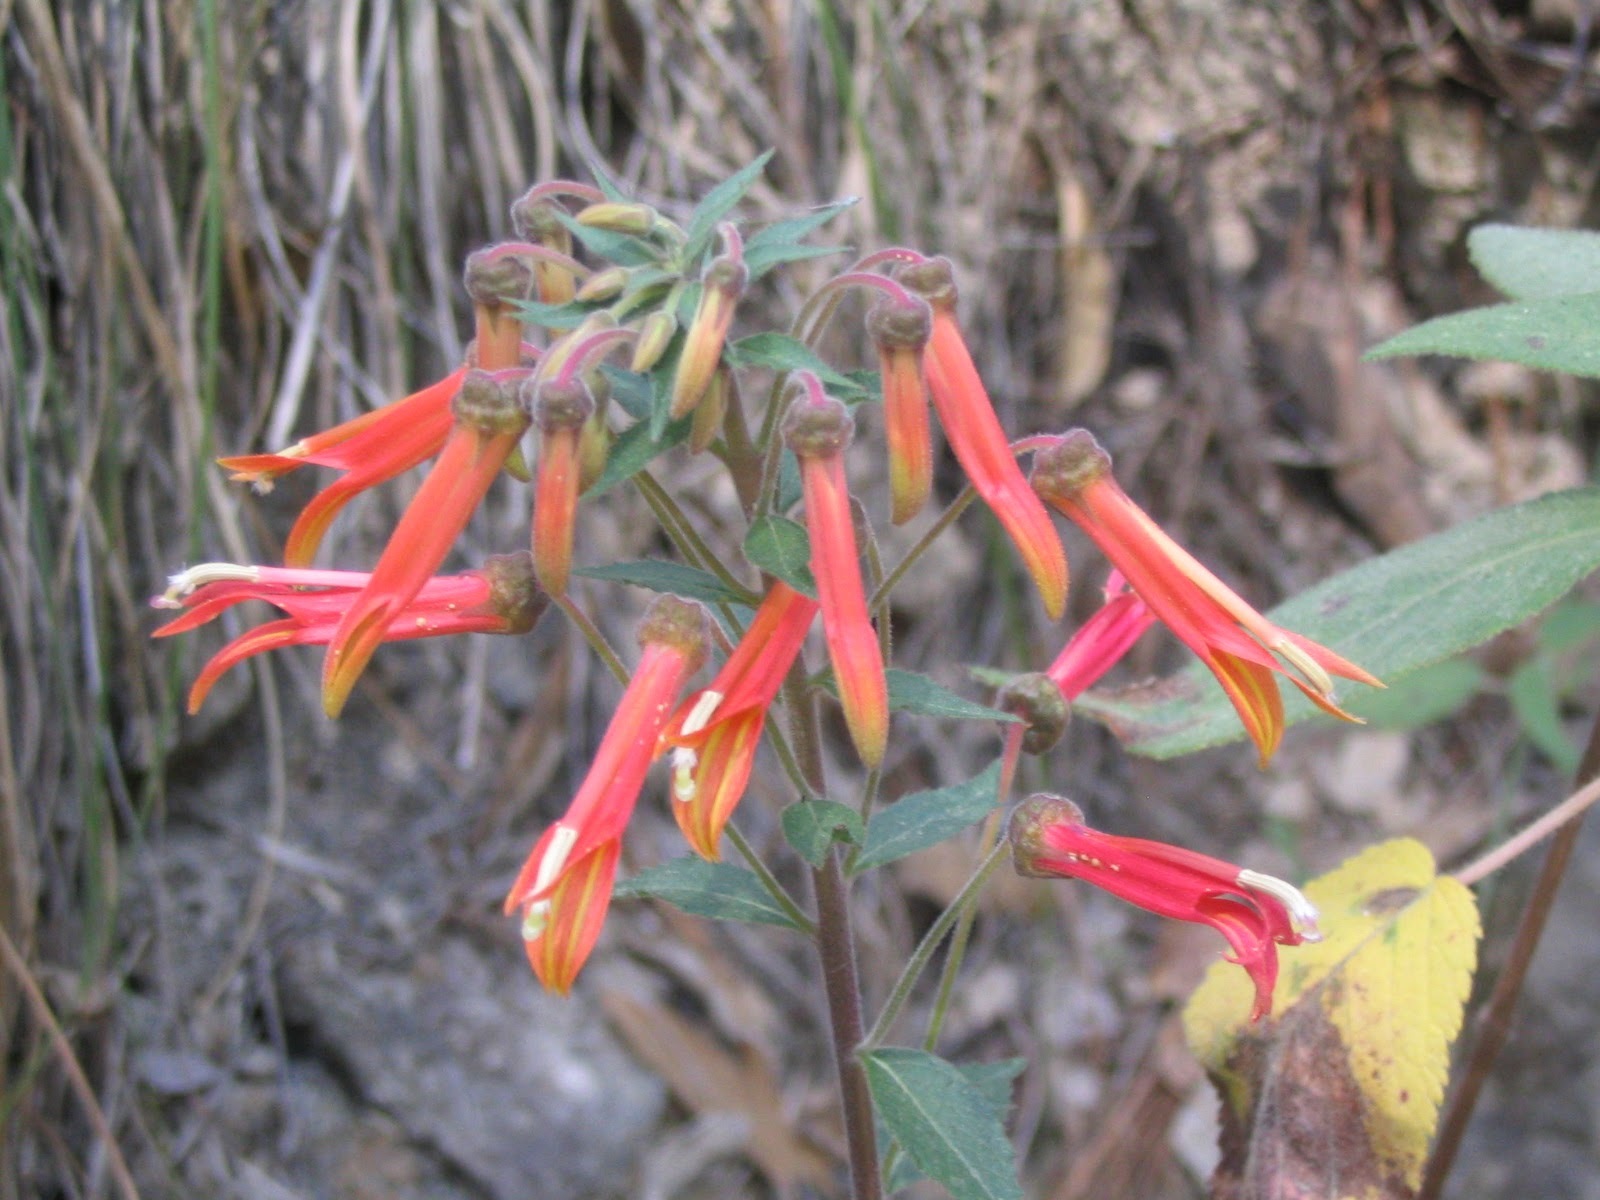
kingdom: Plantae
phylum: Tracheophyta
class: Magnoliopsida
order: Asterales
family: Campanulaceae
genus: Lobelia
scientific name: Lobelia laxiflora
